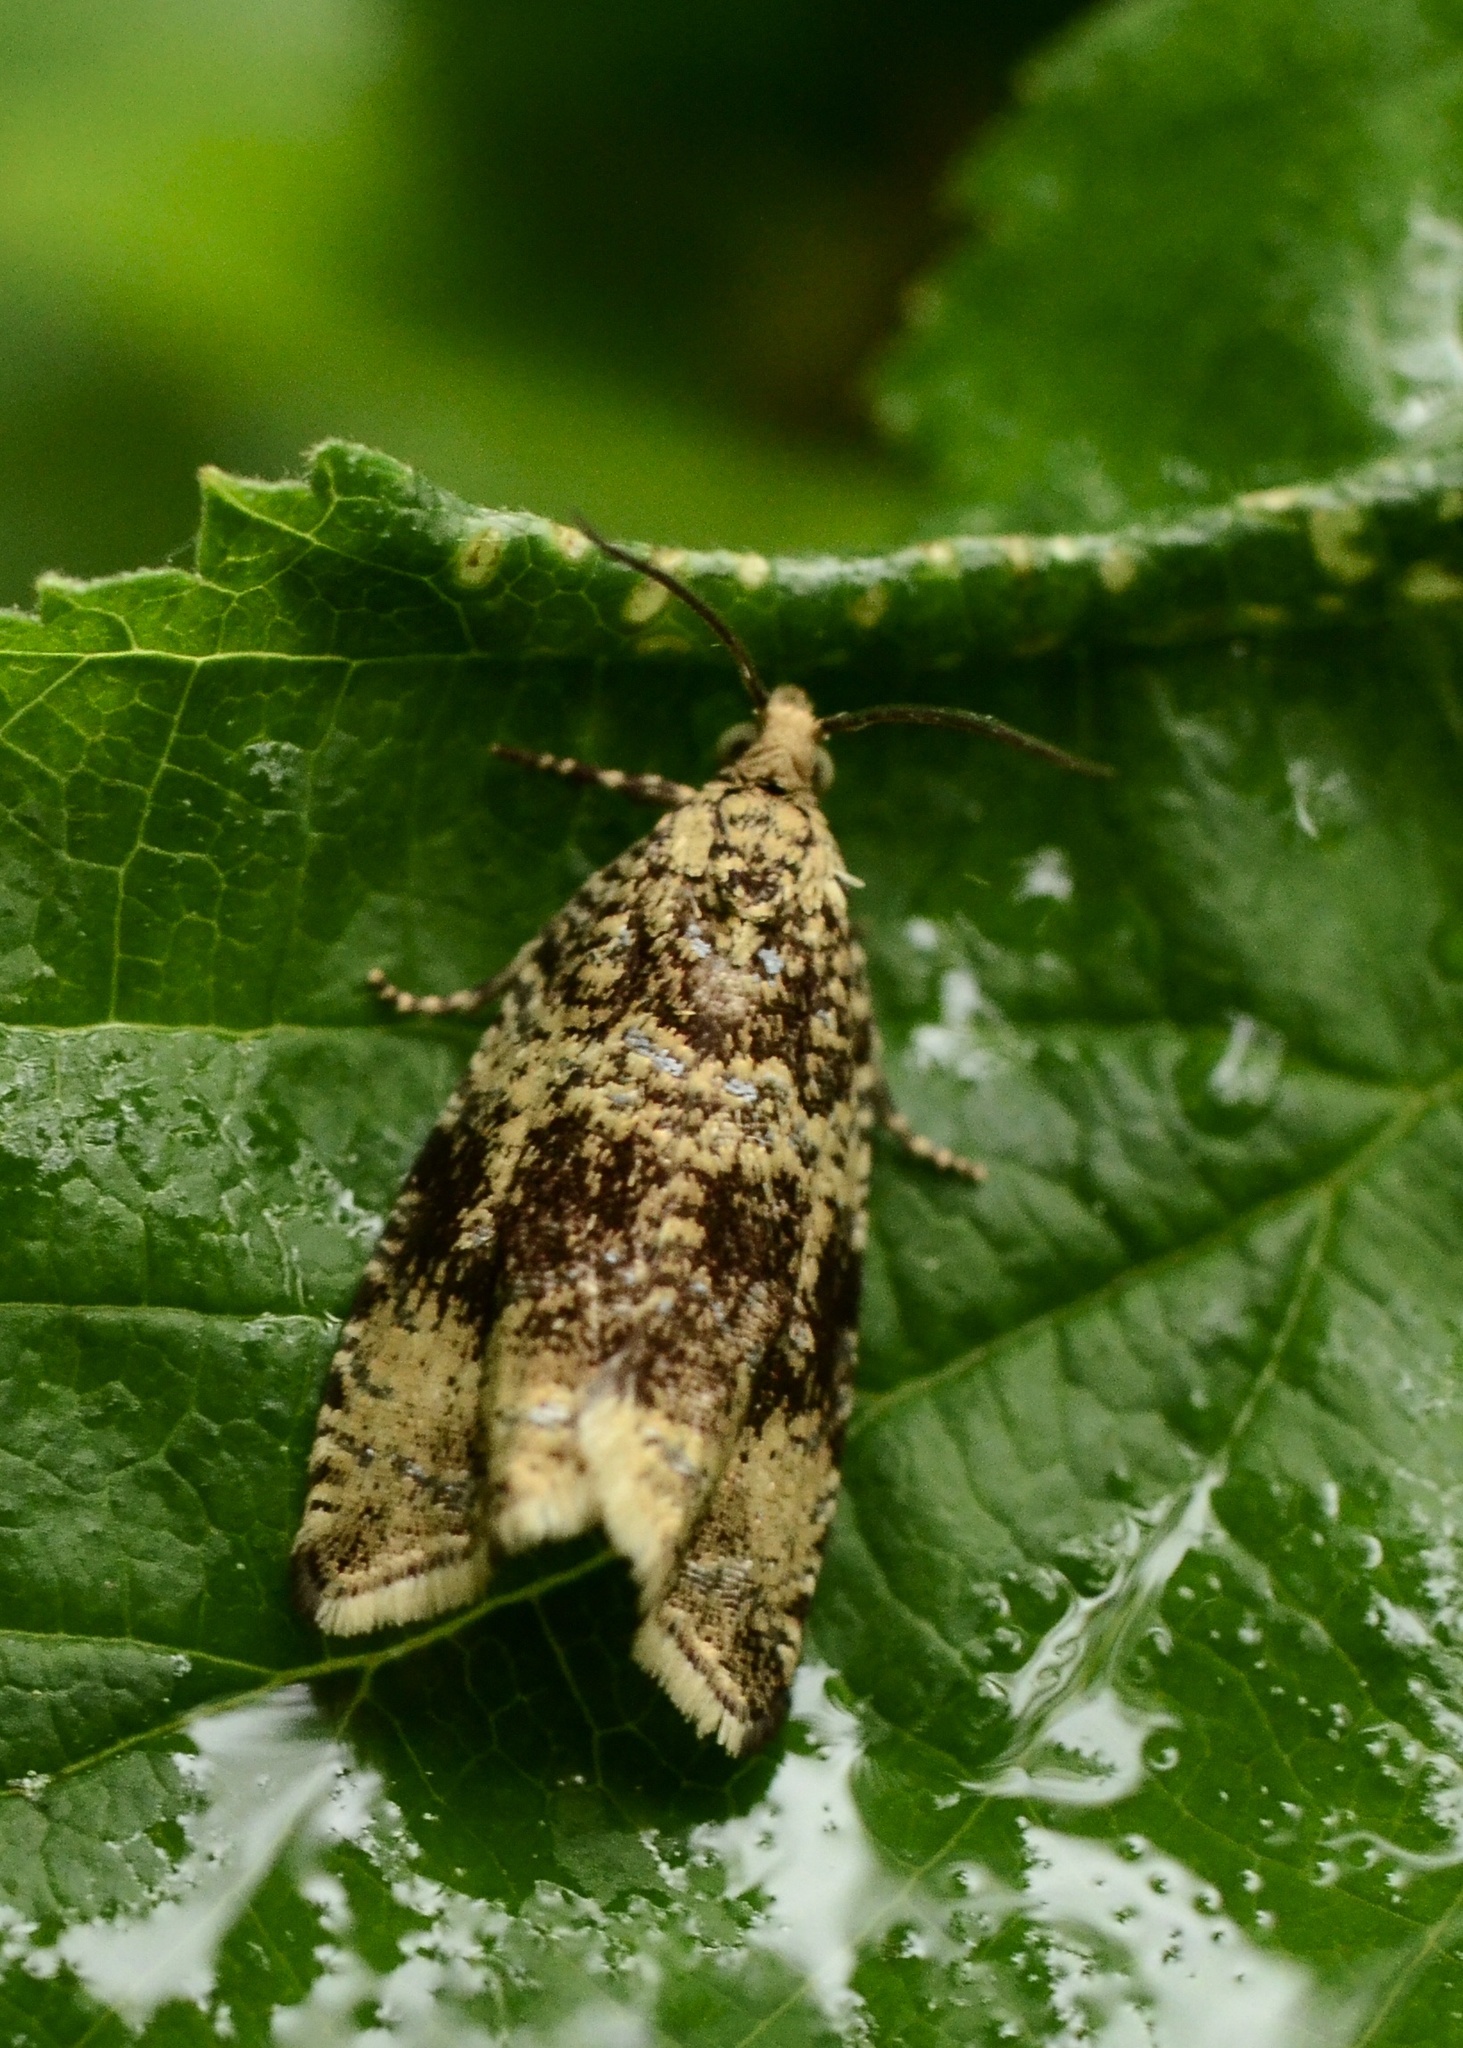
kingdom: Animalia
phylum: Arthropoda
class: Insecta
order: Lepidoptera
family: Tortricidae
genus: Syricoris
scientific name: Syricoris lacunana
